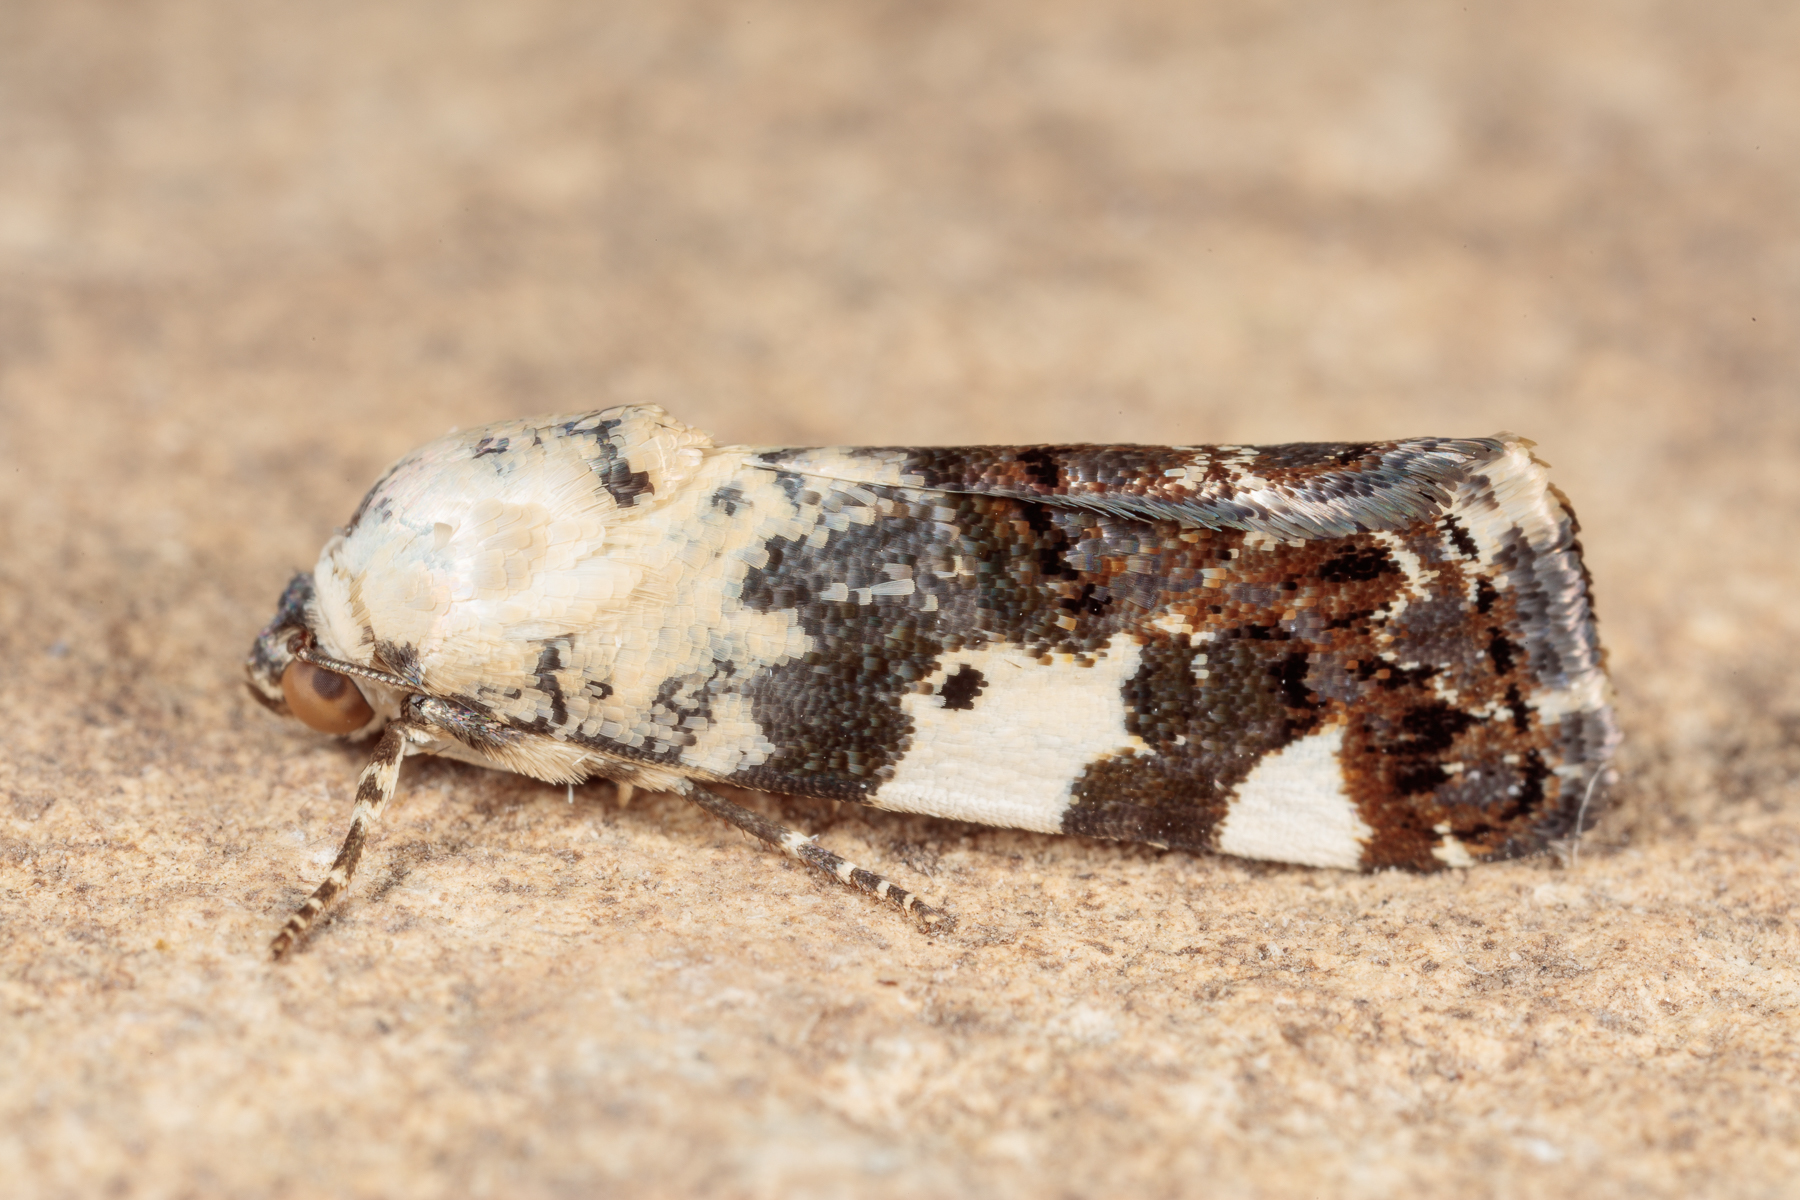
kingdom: Animalia
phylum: Arthropoda
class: Insecta
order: Lepidoptera
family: Noctuidae
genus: Acontia
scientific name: Acontia aprica
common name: Nun
